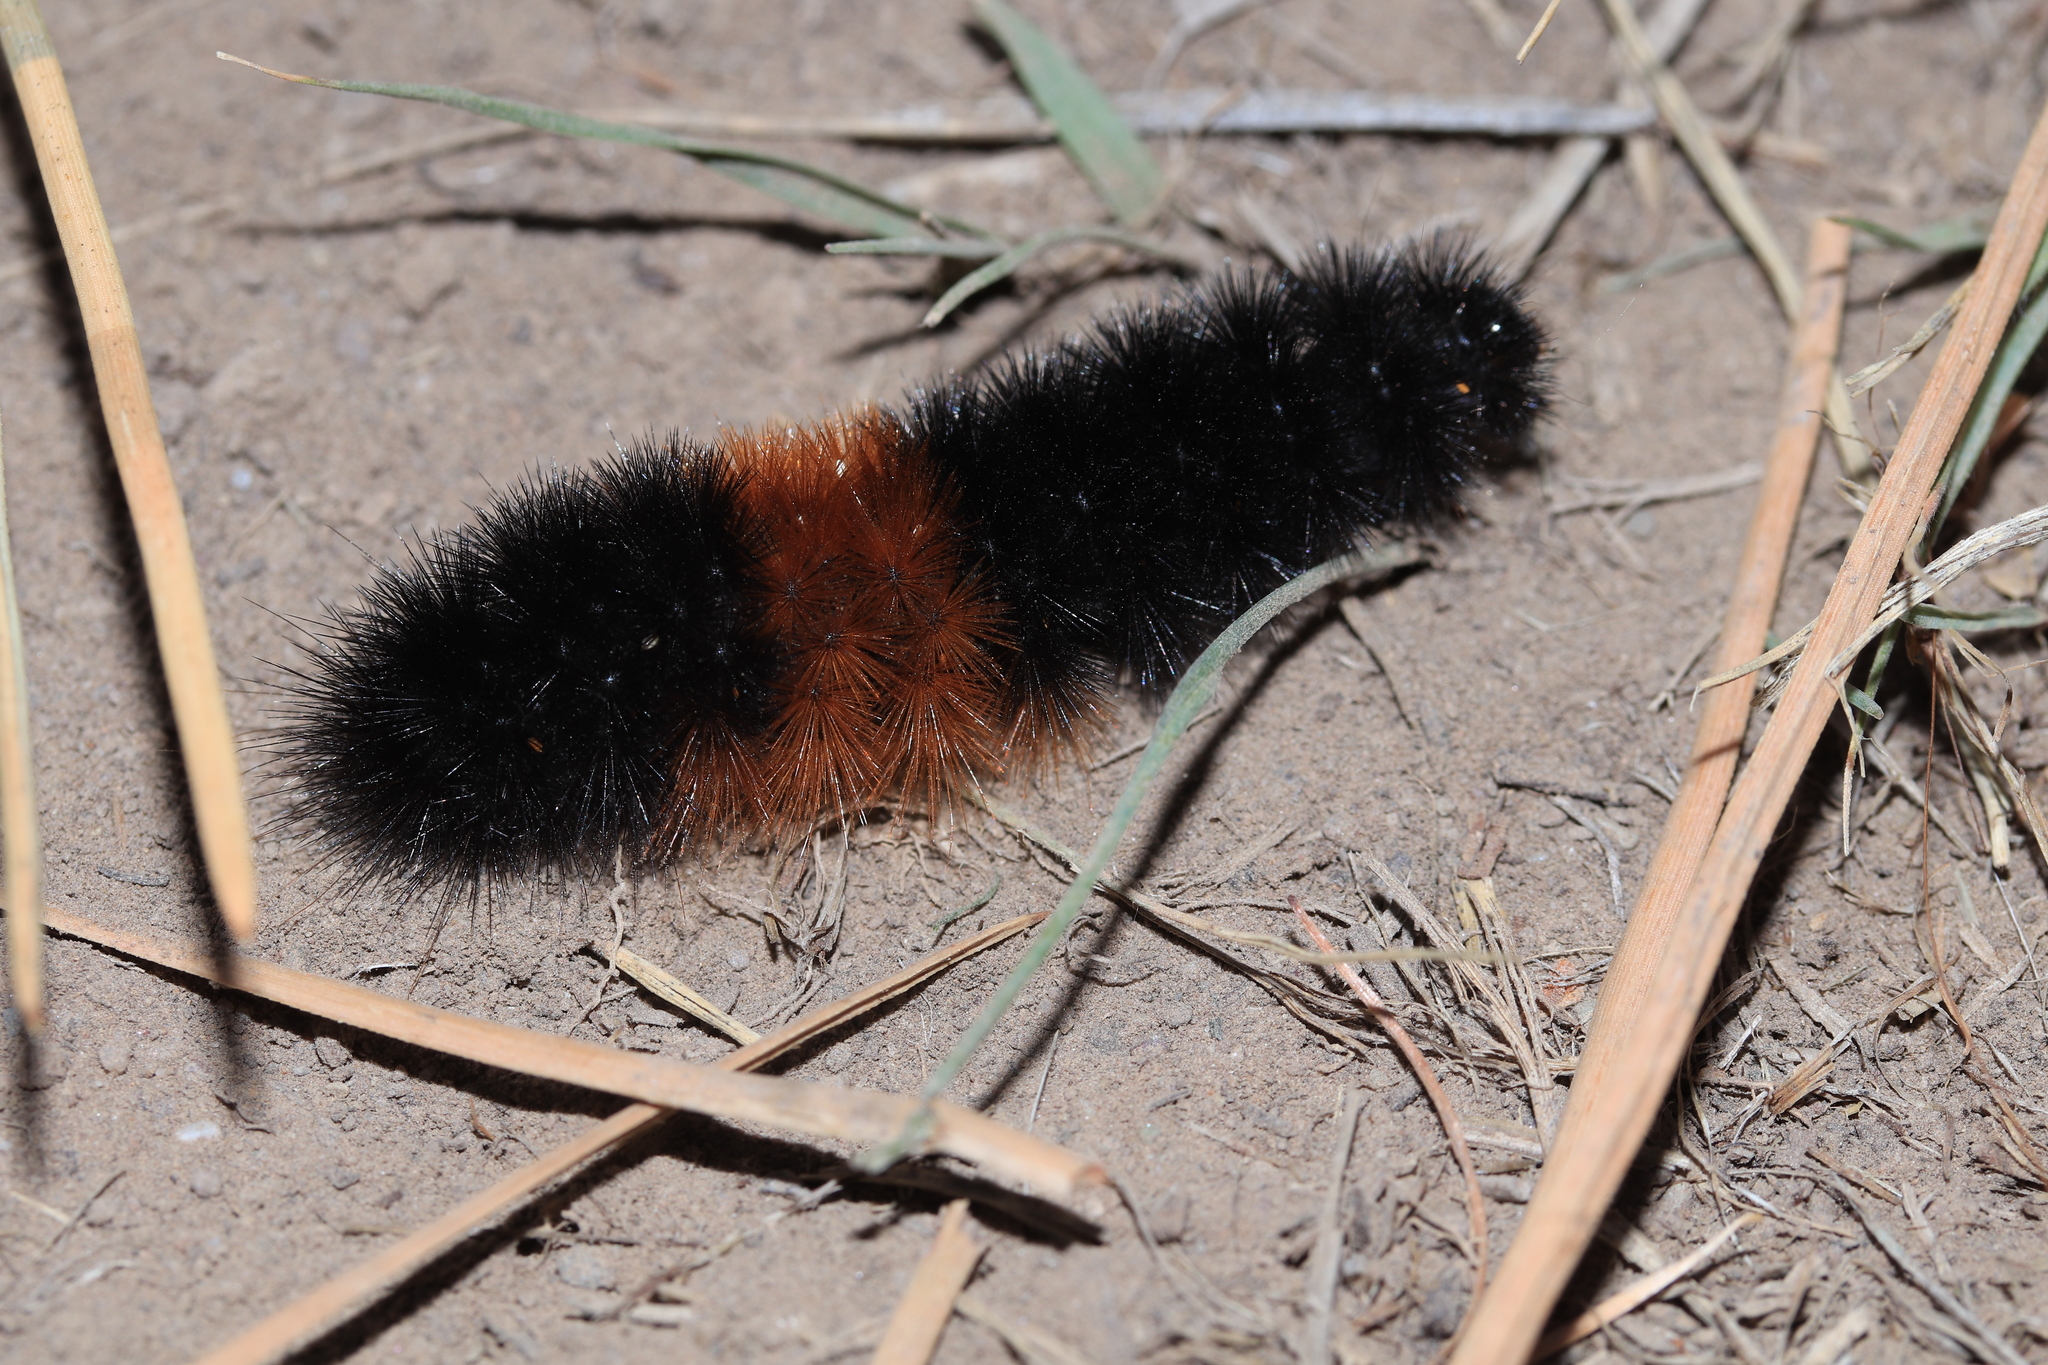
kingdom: Animalia
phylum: Arthropoda
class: Insecta
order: Lepidoptera
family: Erebidae
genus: Pyrrharctia
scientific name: Pyrrharctia isabella
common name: Isabella tiger moth
